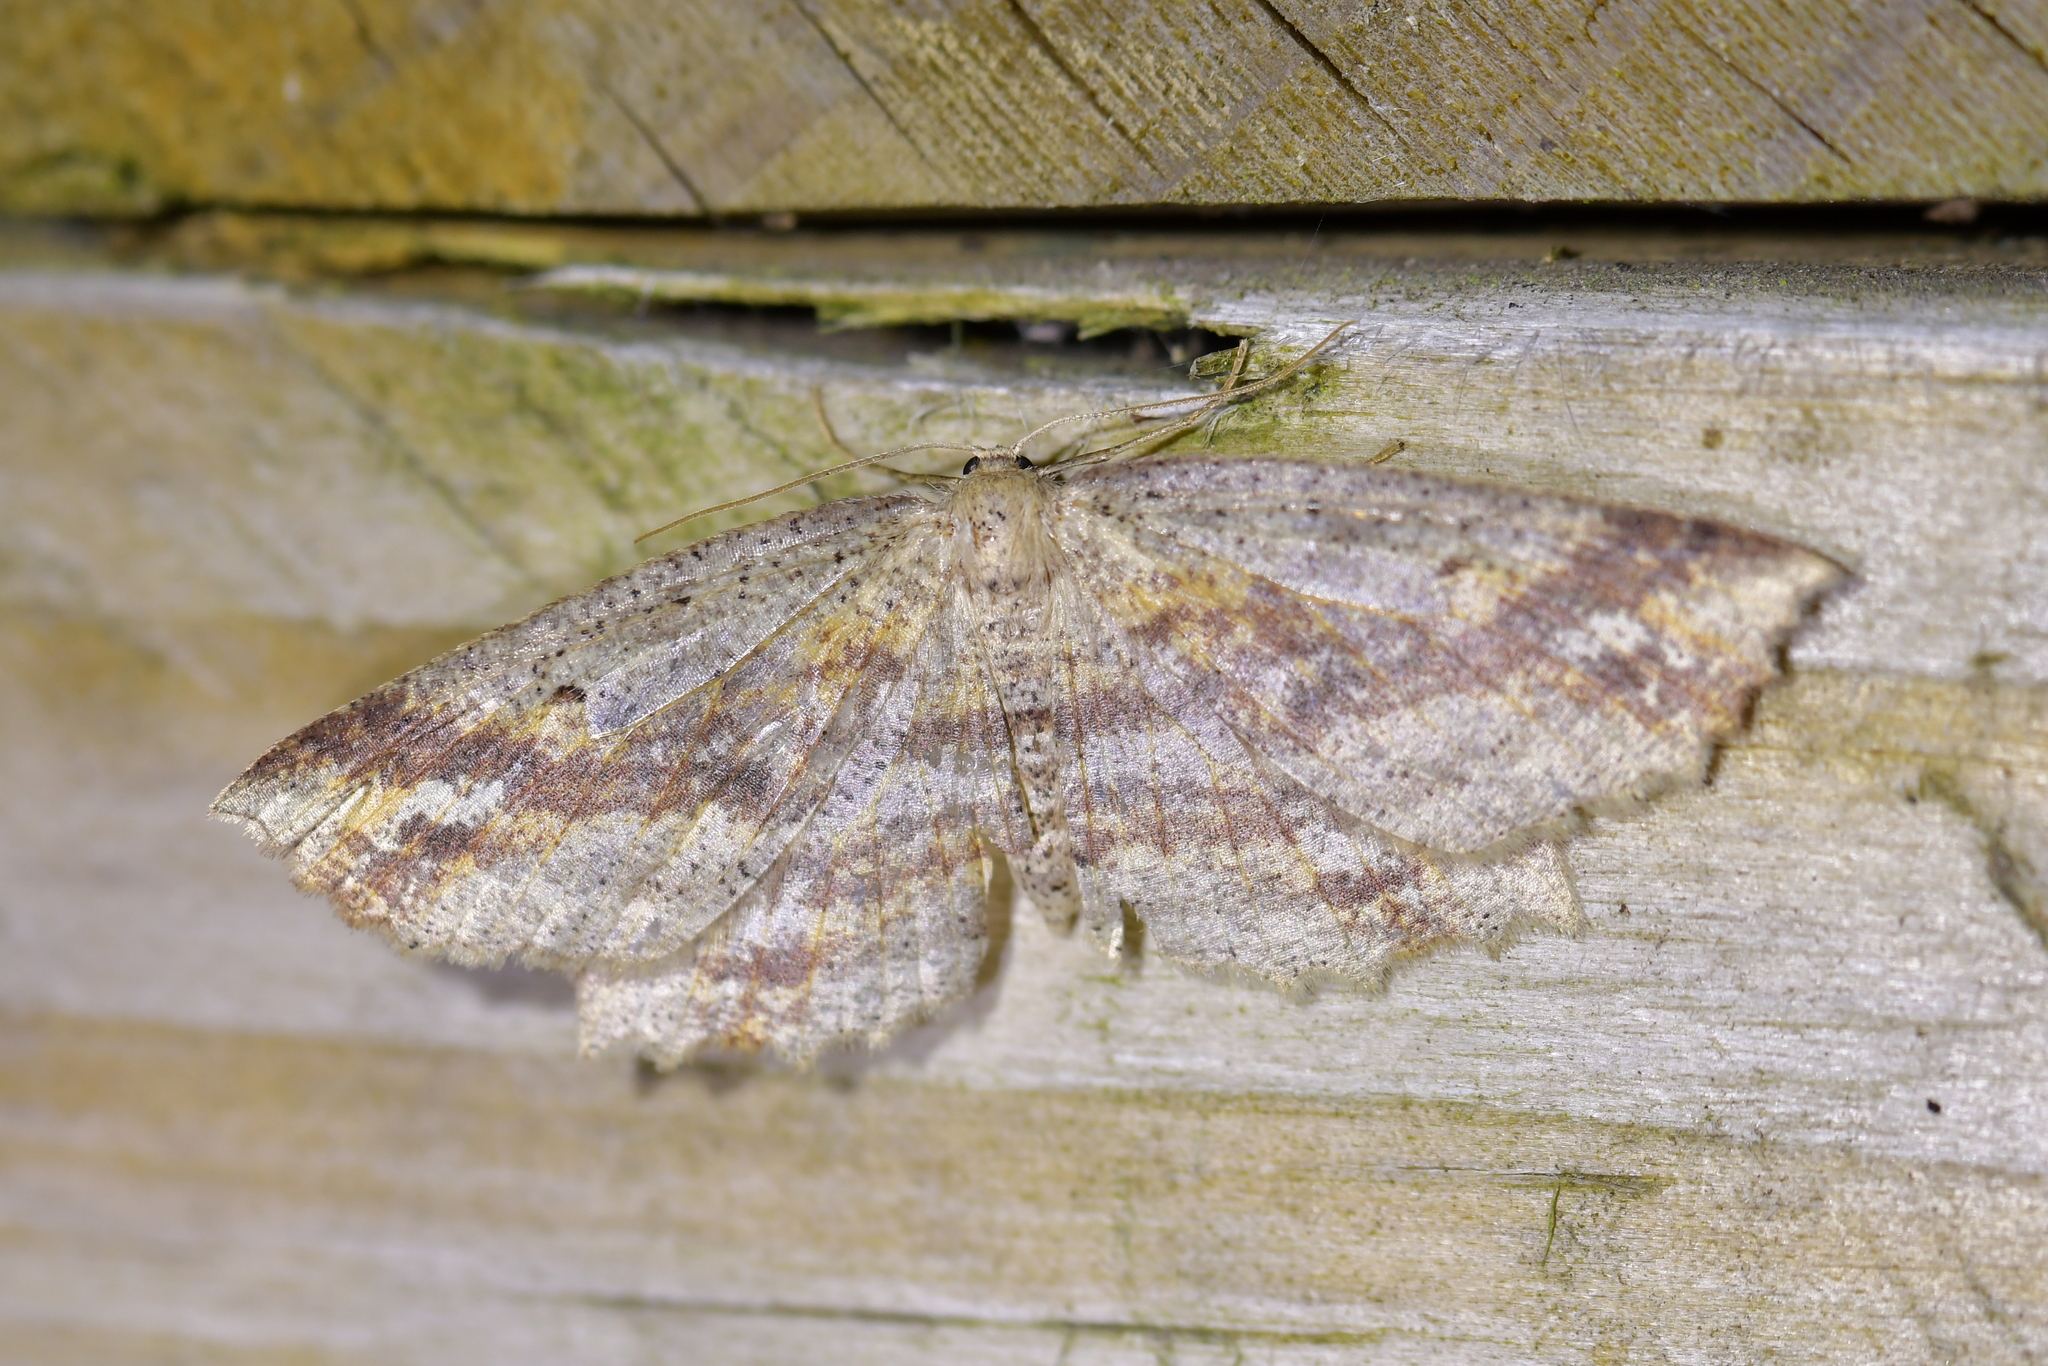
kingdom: Animalia
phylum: Arthropoda
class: Insecta
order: Lepidoptera
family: Geometridae
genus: Xyridacma
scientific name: Xyridacma veronicae
